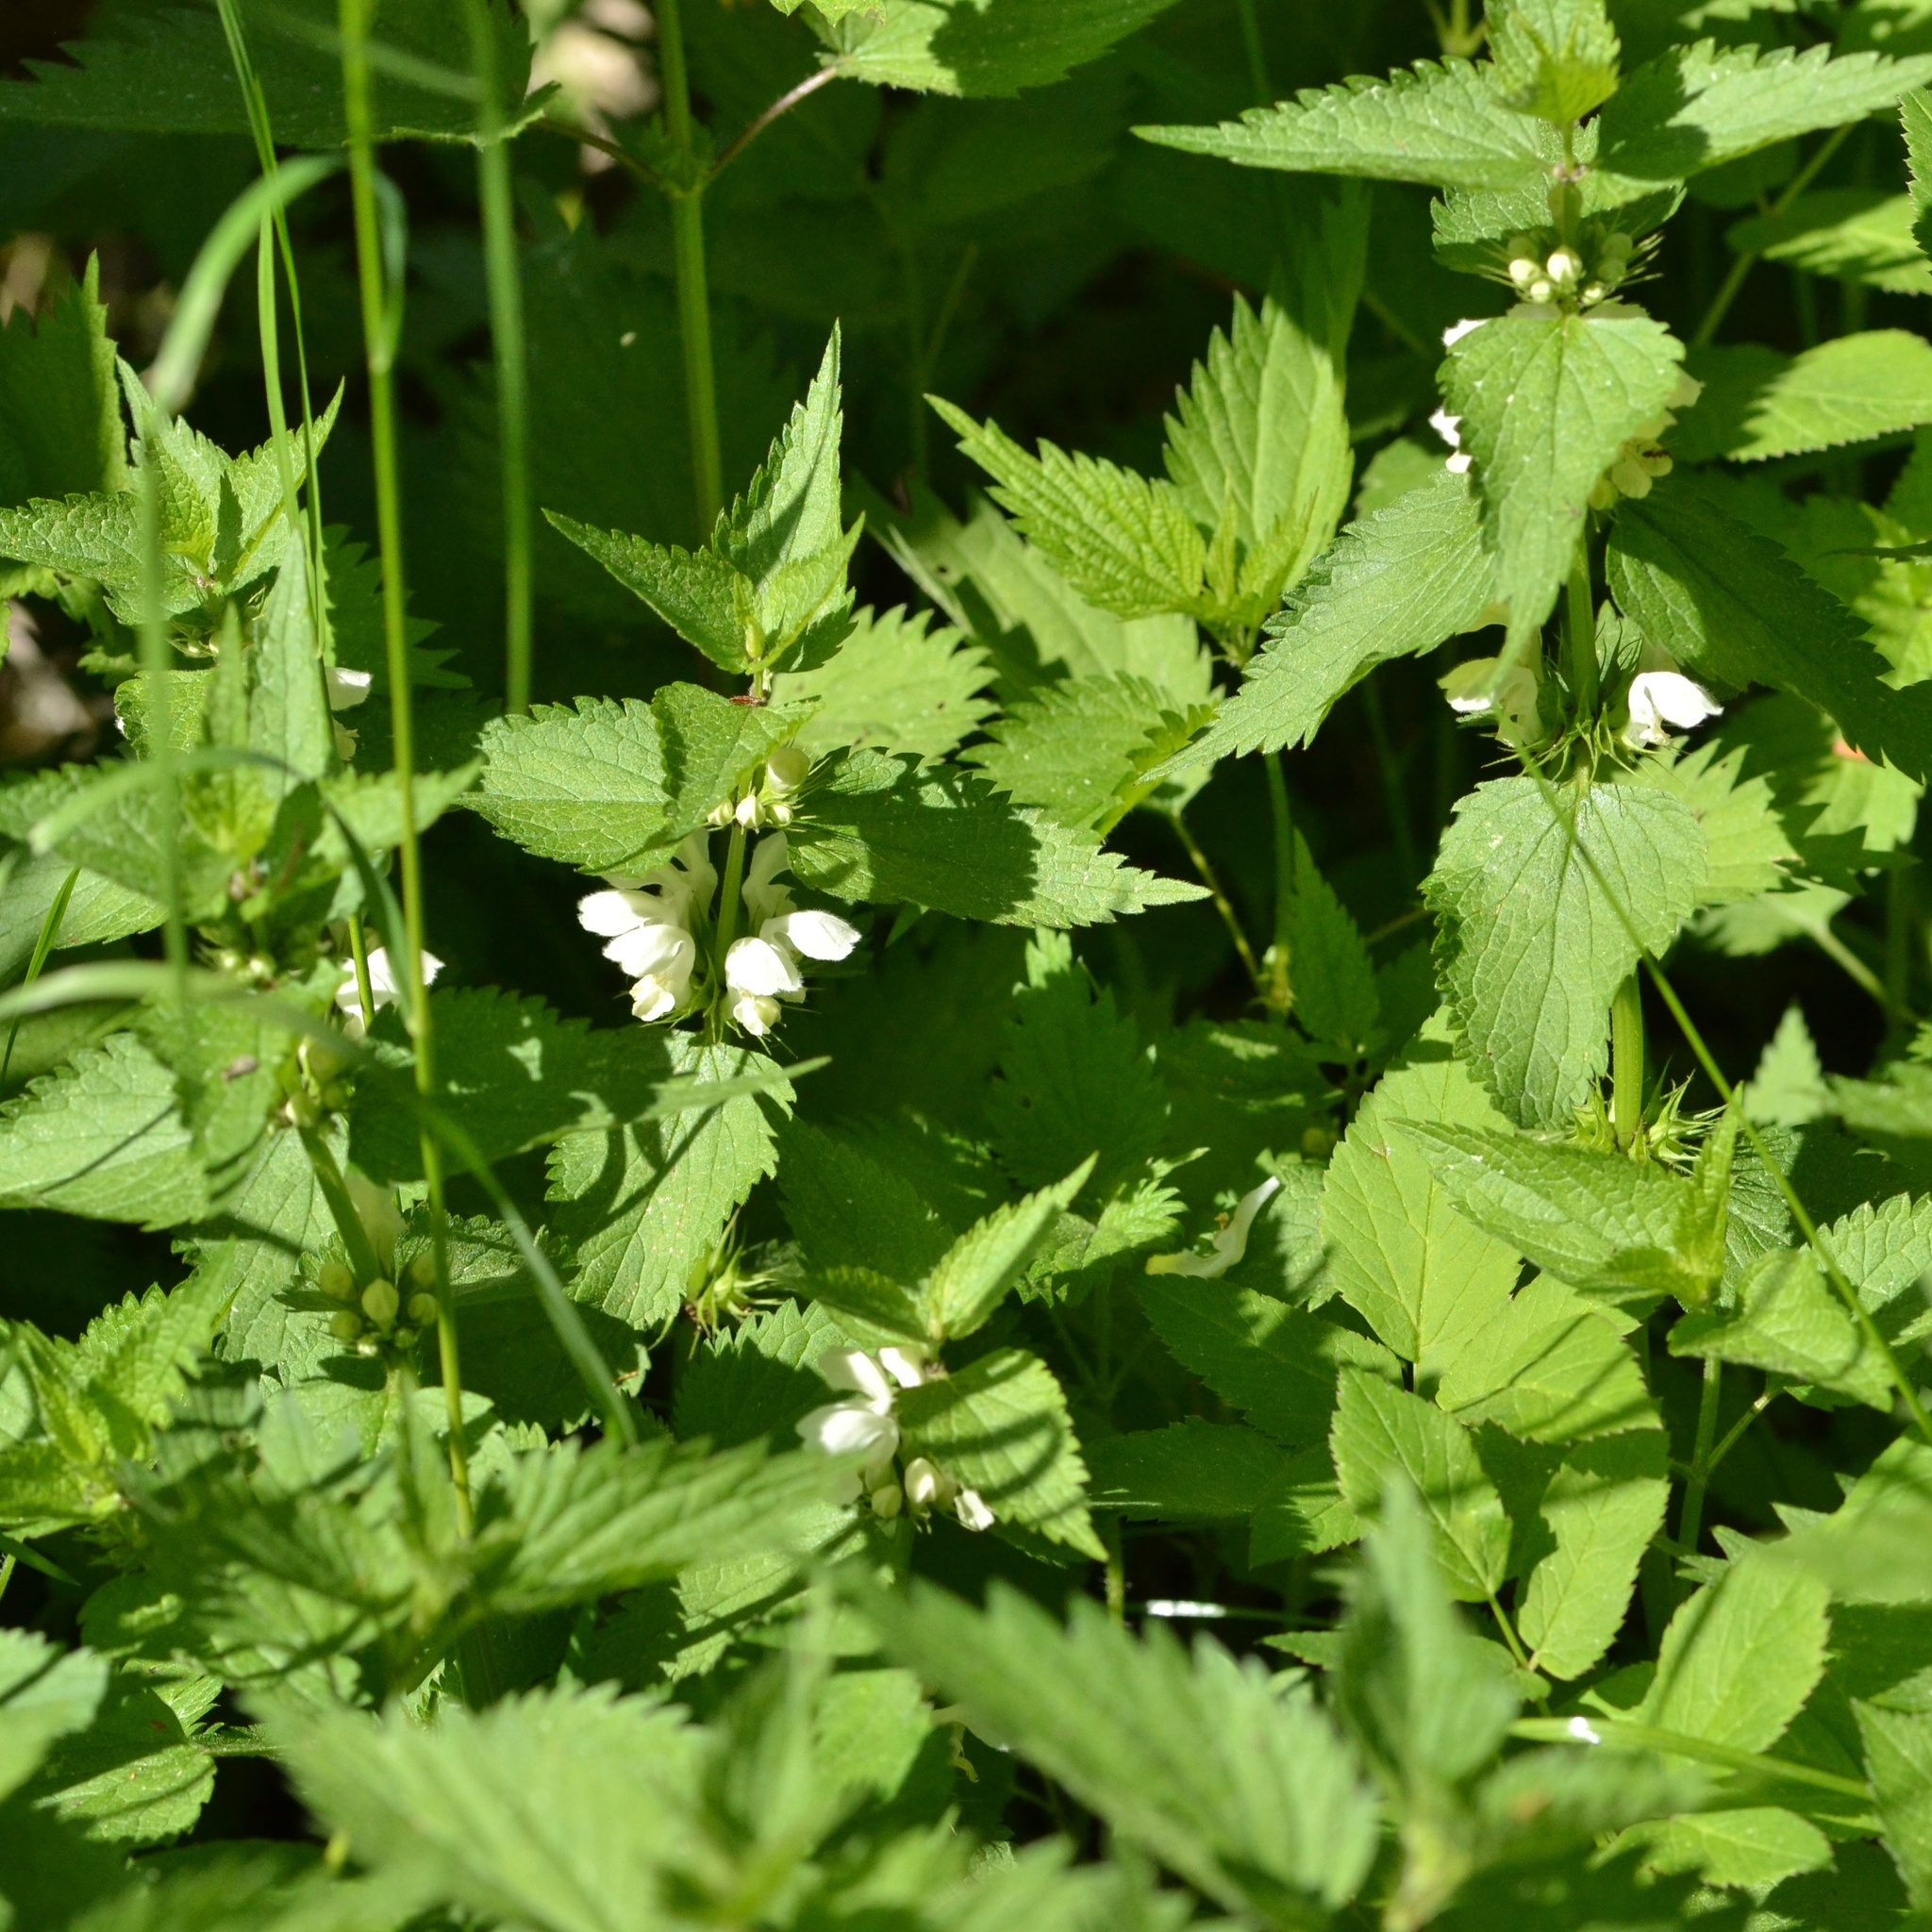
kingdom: Plantae
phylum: Tracheophyta
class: Magnoliopsida
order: Lamiales
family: Lamiaceae
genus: Lamium
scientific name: Lamium album
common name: White dead-nettle
